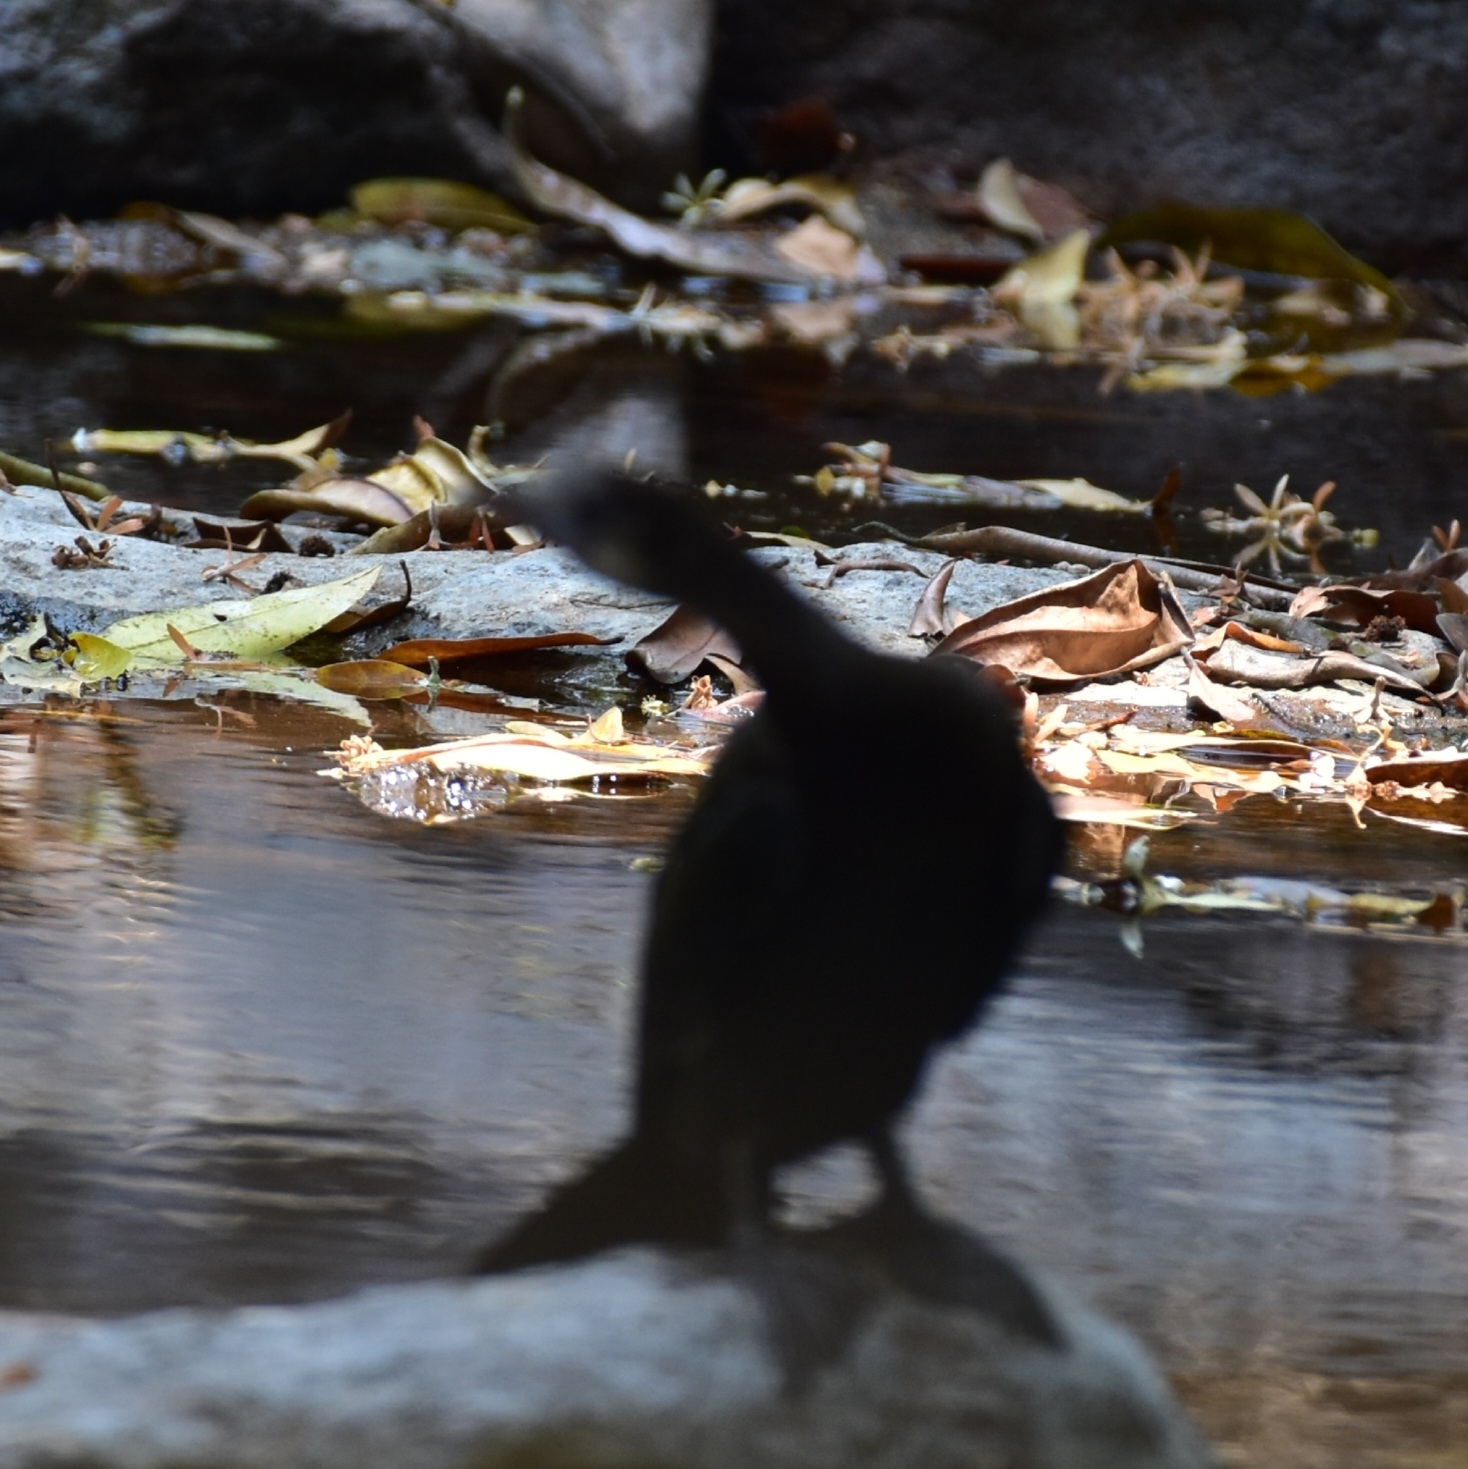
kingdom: Animalia
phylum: Chordata
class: Aves
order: Suliformes
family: Phalacrocoracidae
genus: Microcarbo
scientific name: Microcarbo niger
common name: Little cormorant
